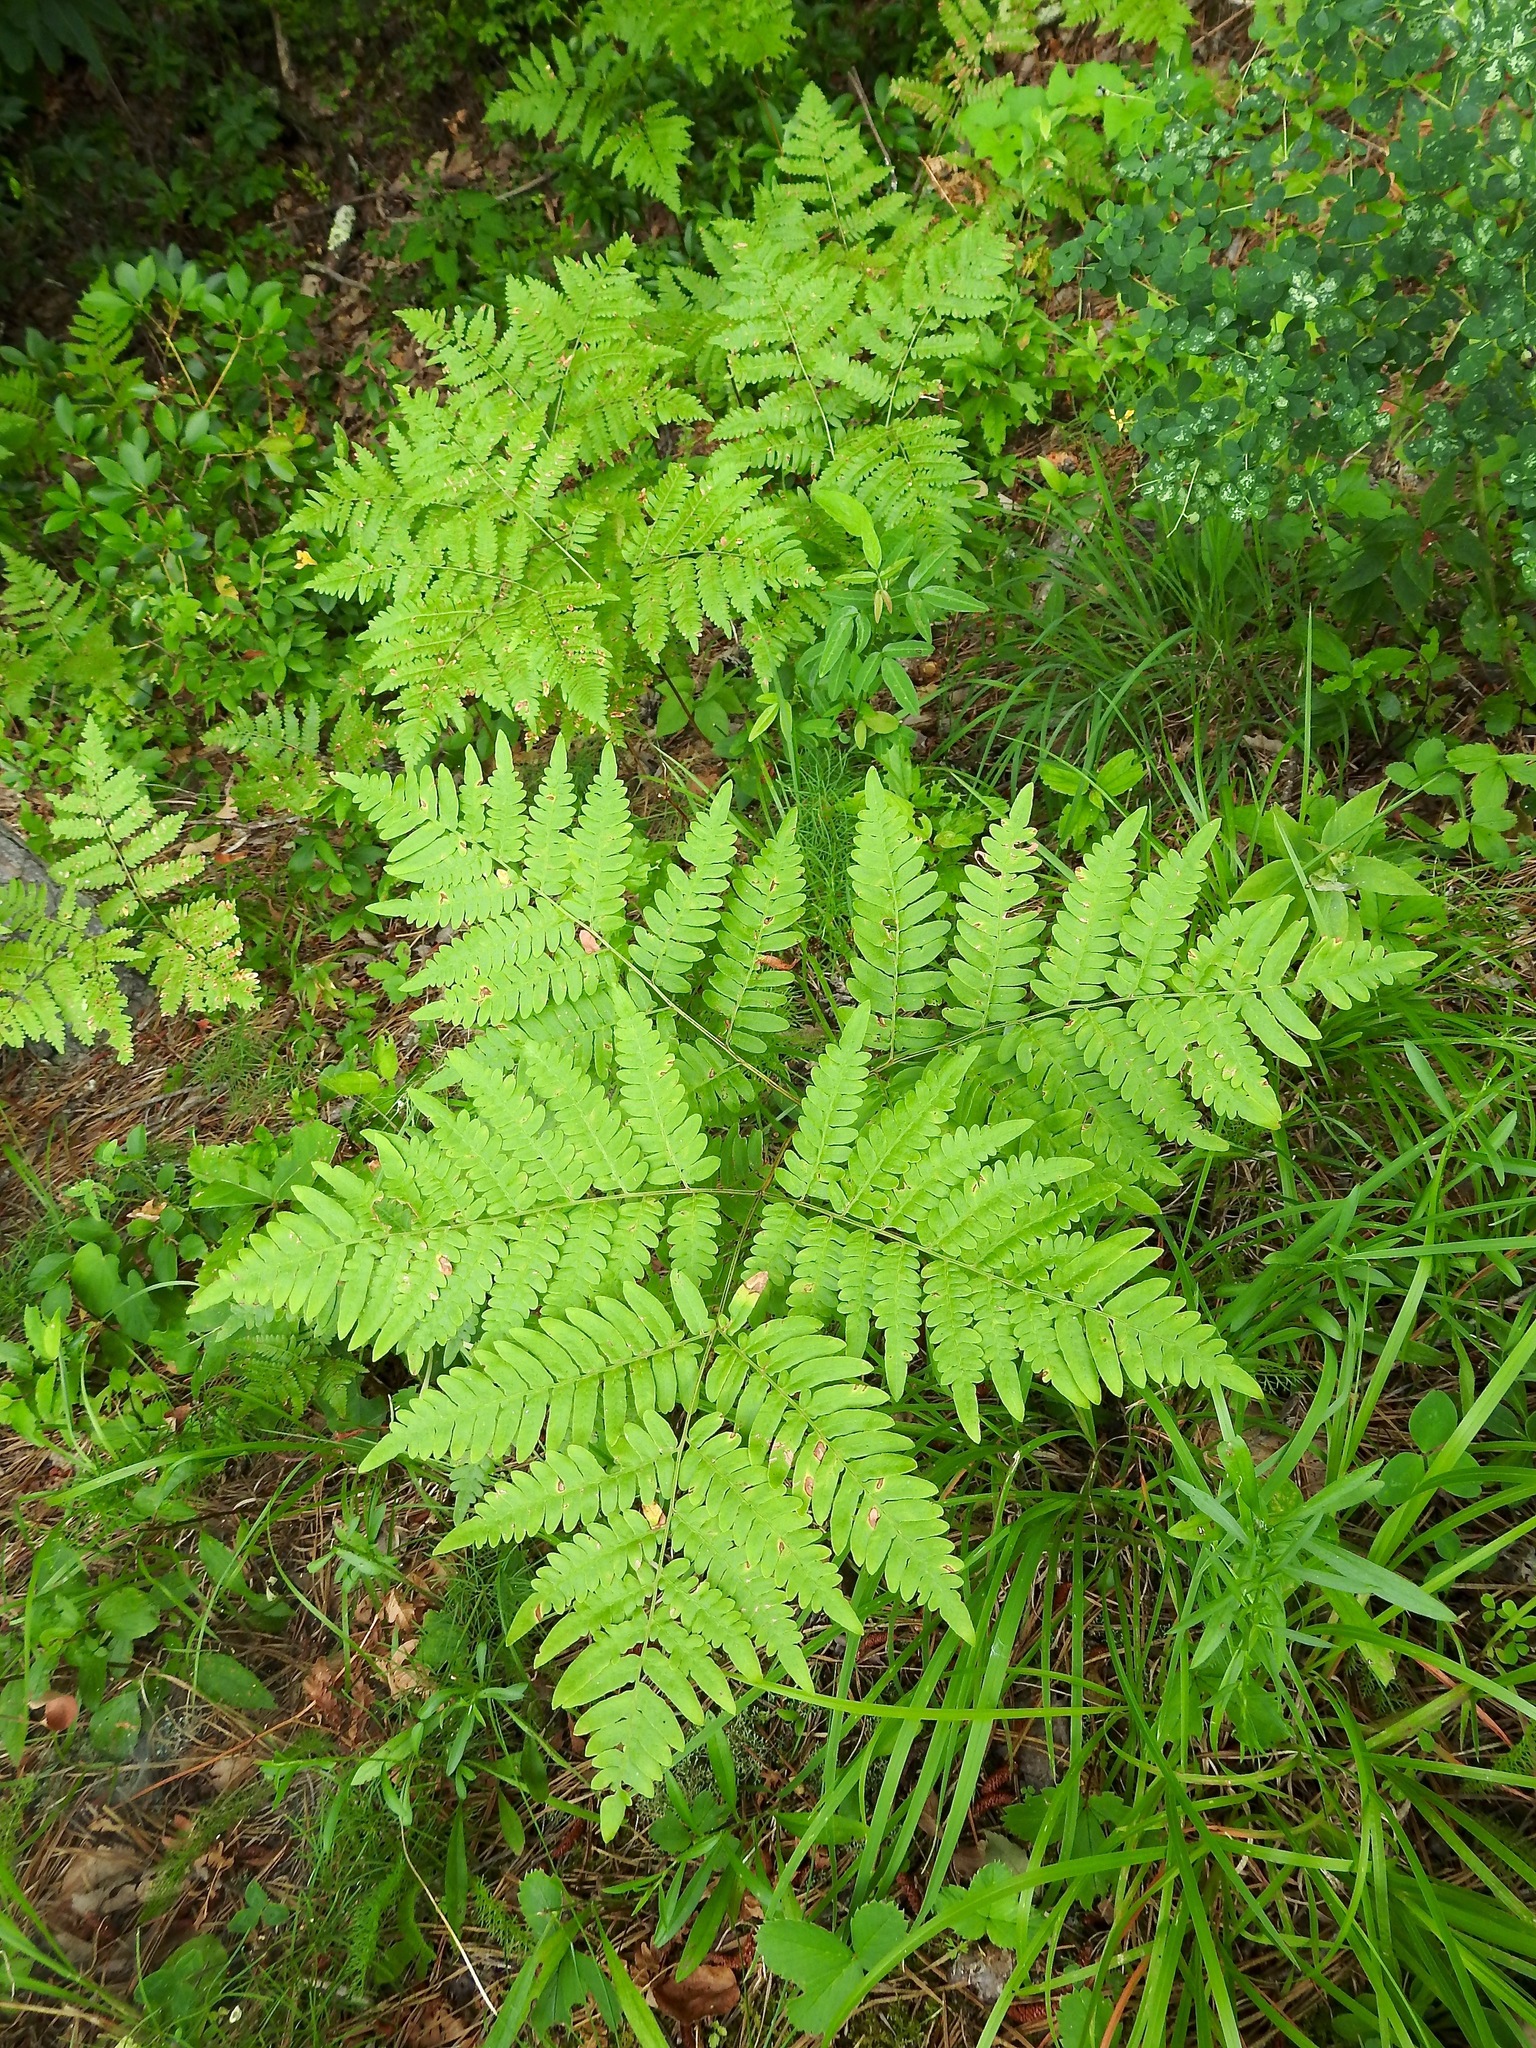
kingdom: Plantae
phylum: Tracheophyta
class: Polypodiopsida
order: Polypodiales
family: Dennstaedtiaceae
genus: Pteridium
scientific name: Pteridium aquilinum
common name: Bracken
